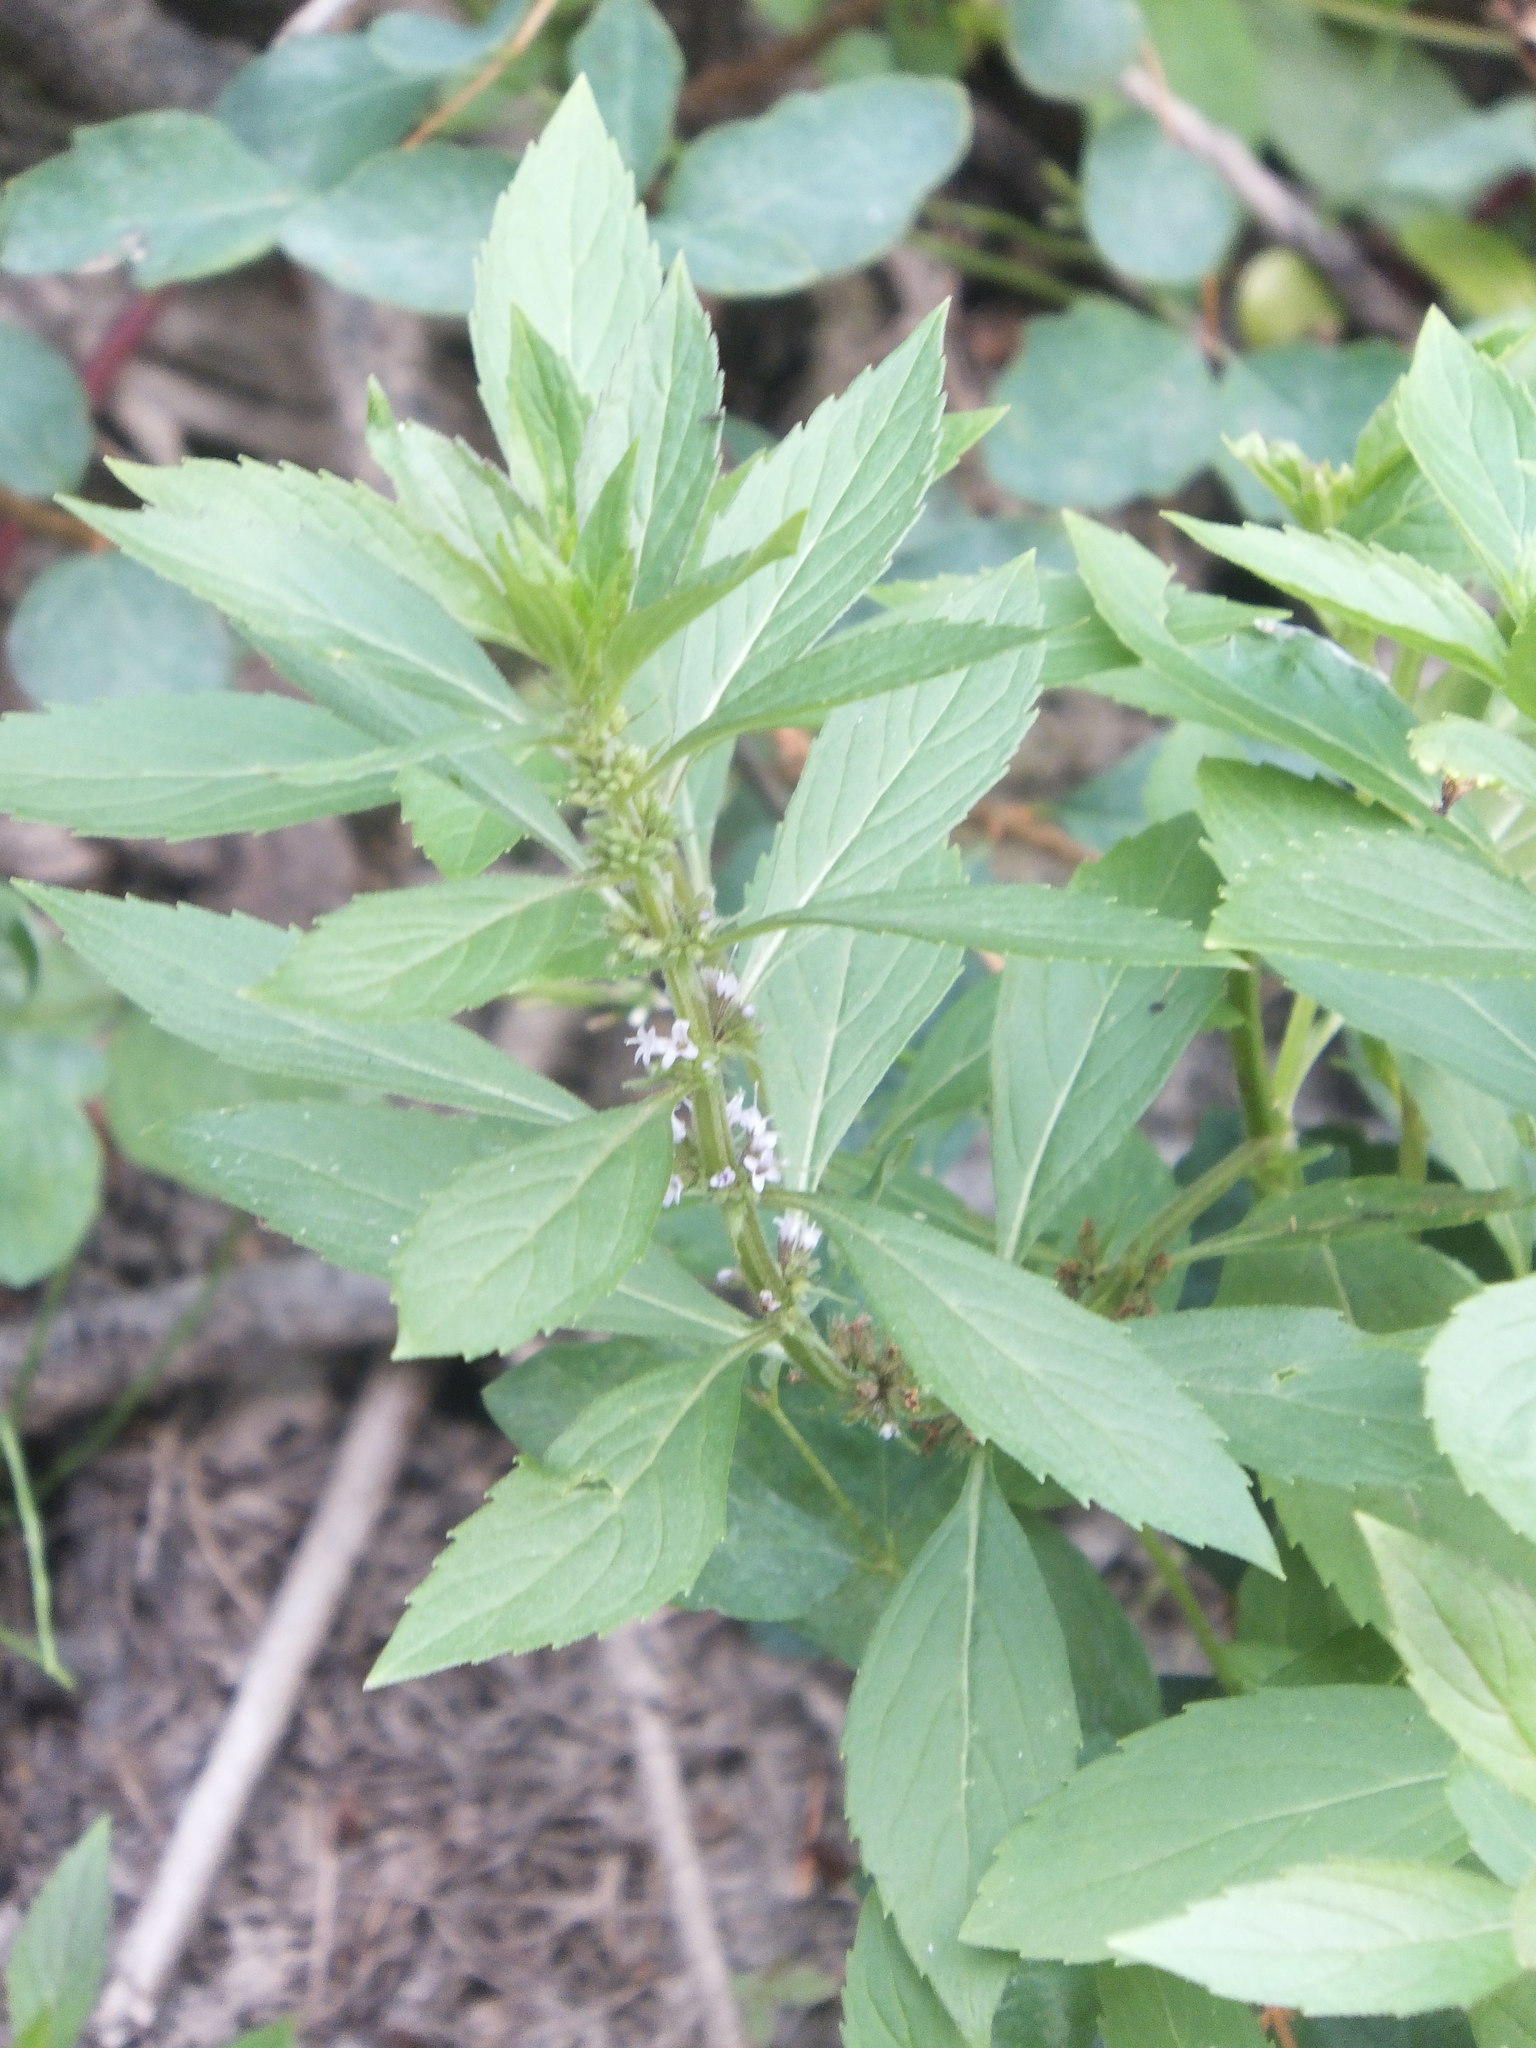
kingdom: Plantae
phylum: Tracheophyta
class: Magnoliopsida
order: Lamiales
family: Lamiaceae
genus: Mentha
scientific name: Mentha canadensis
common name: American corn mint
